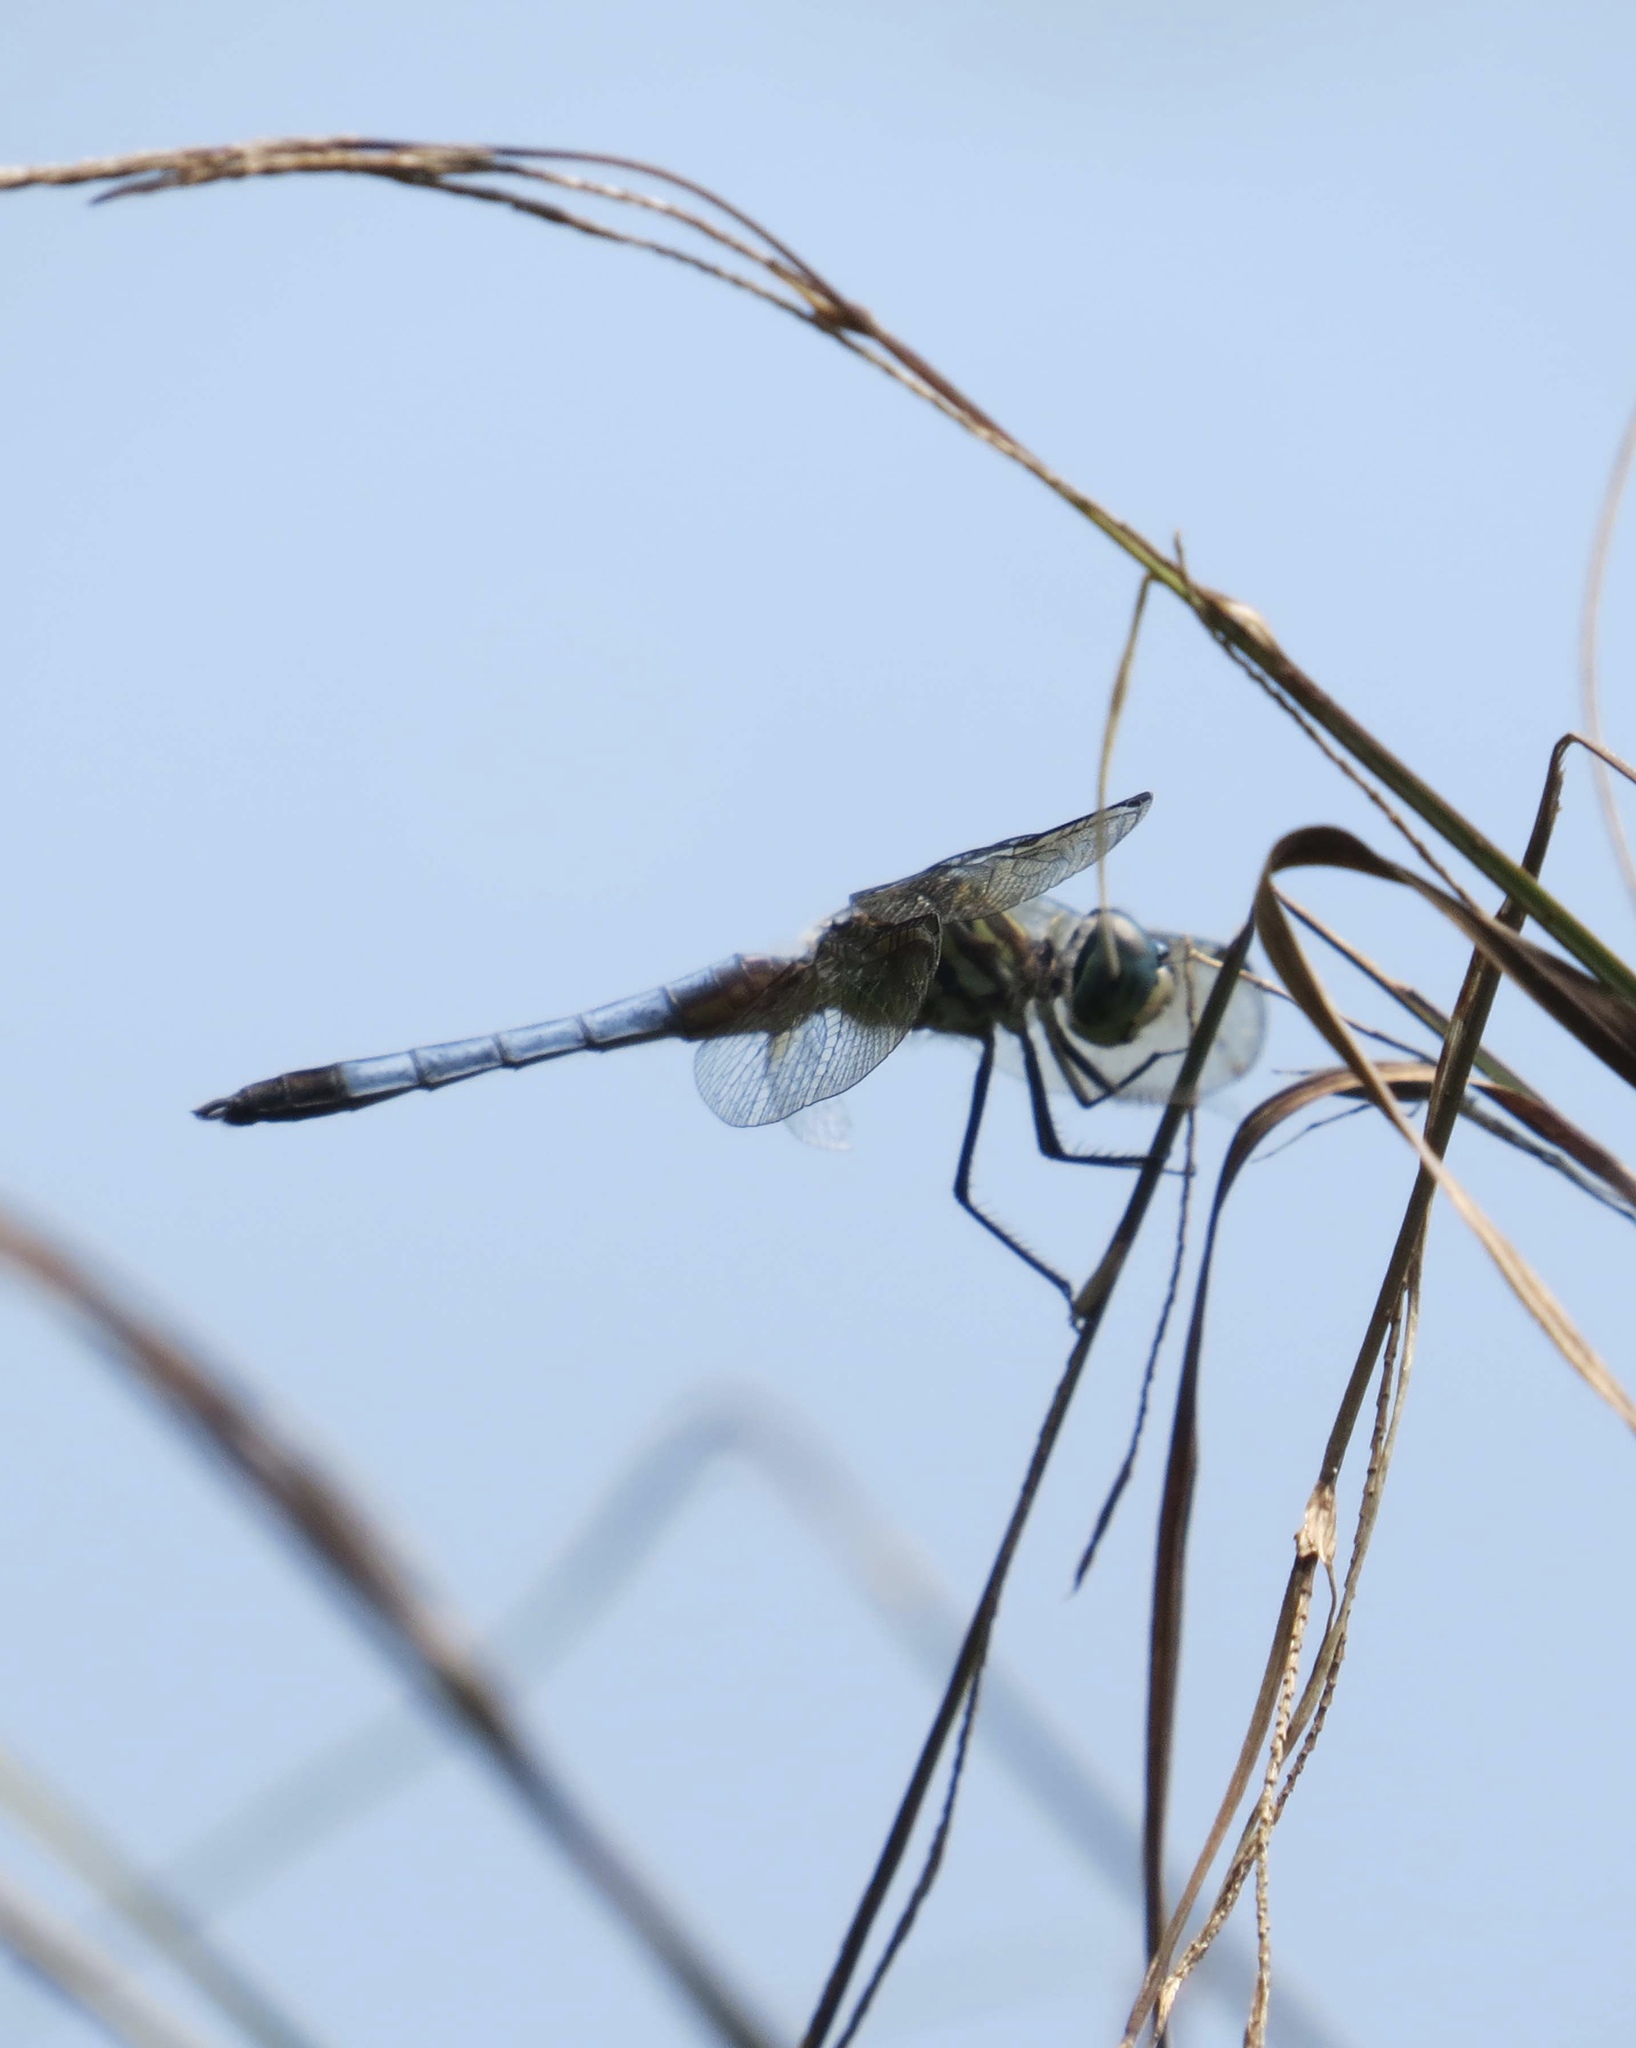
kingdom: Animalia
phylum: Arthropoda
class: Insecta
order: Odonata
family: Libellulidae
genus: Pachydiplax
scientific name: Pachydiplax longipennis
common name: Blue dasher
